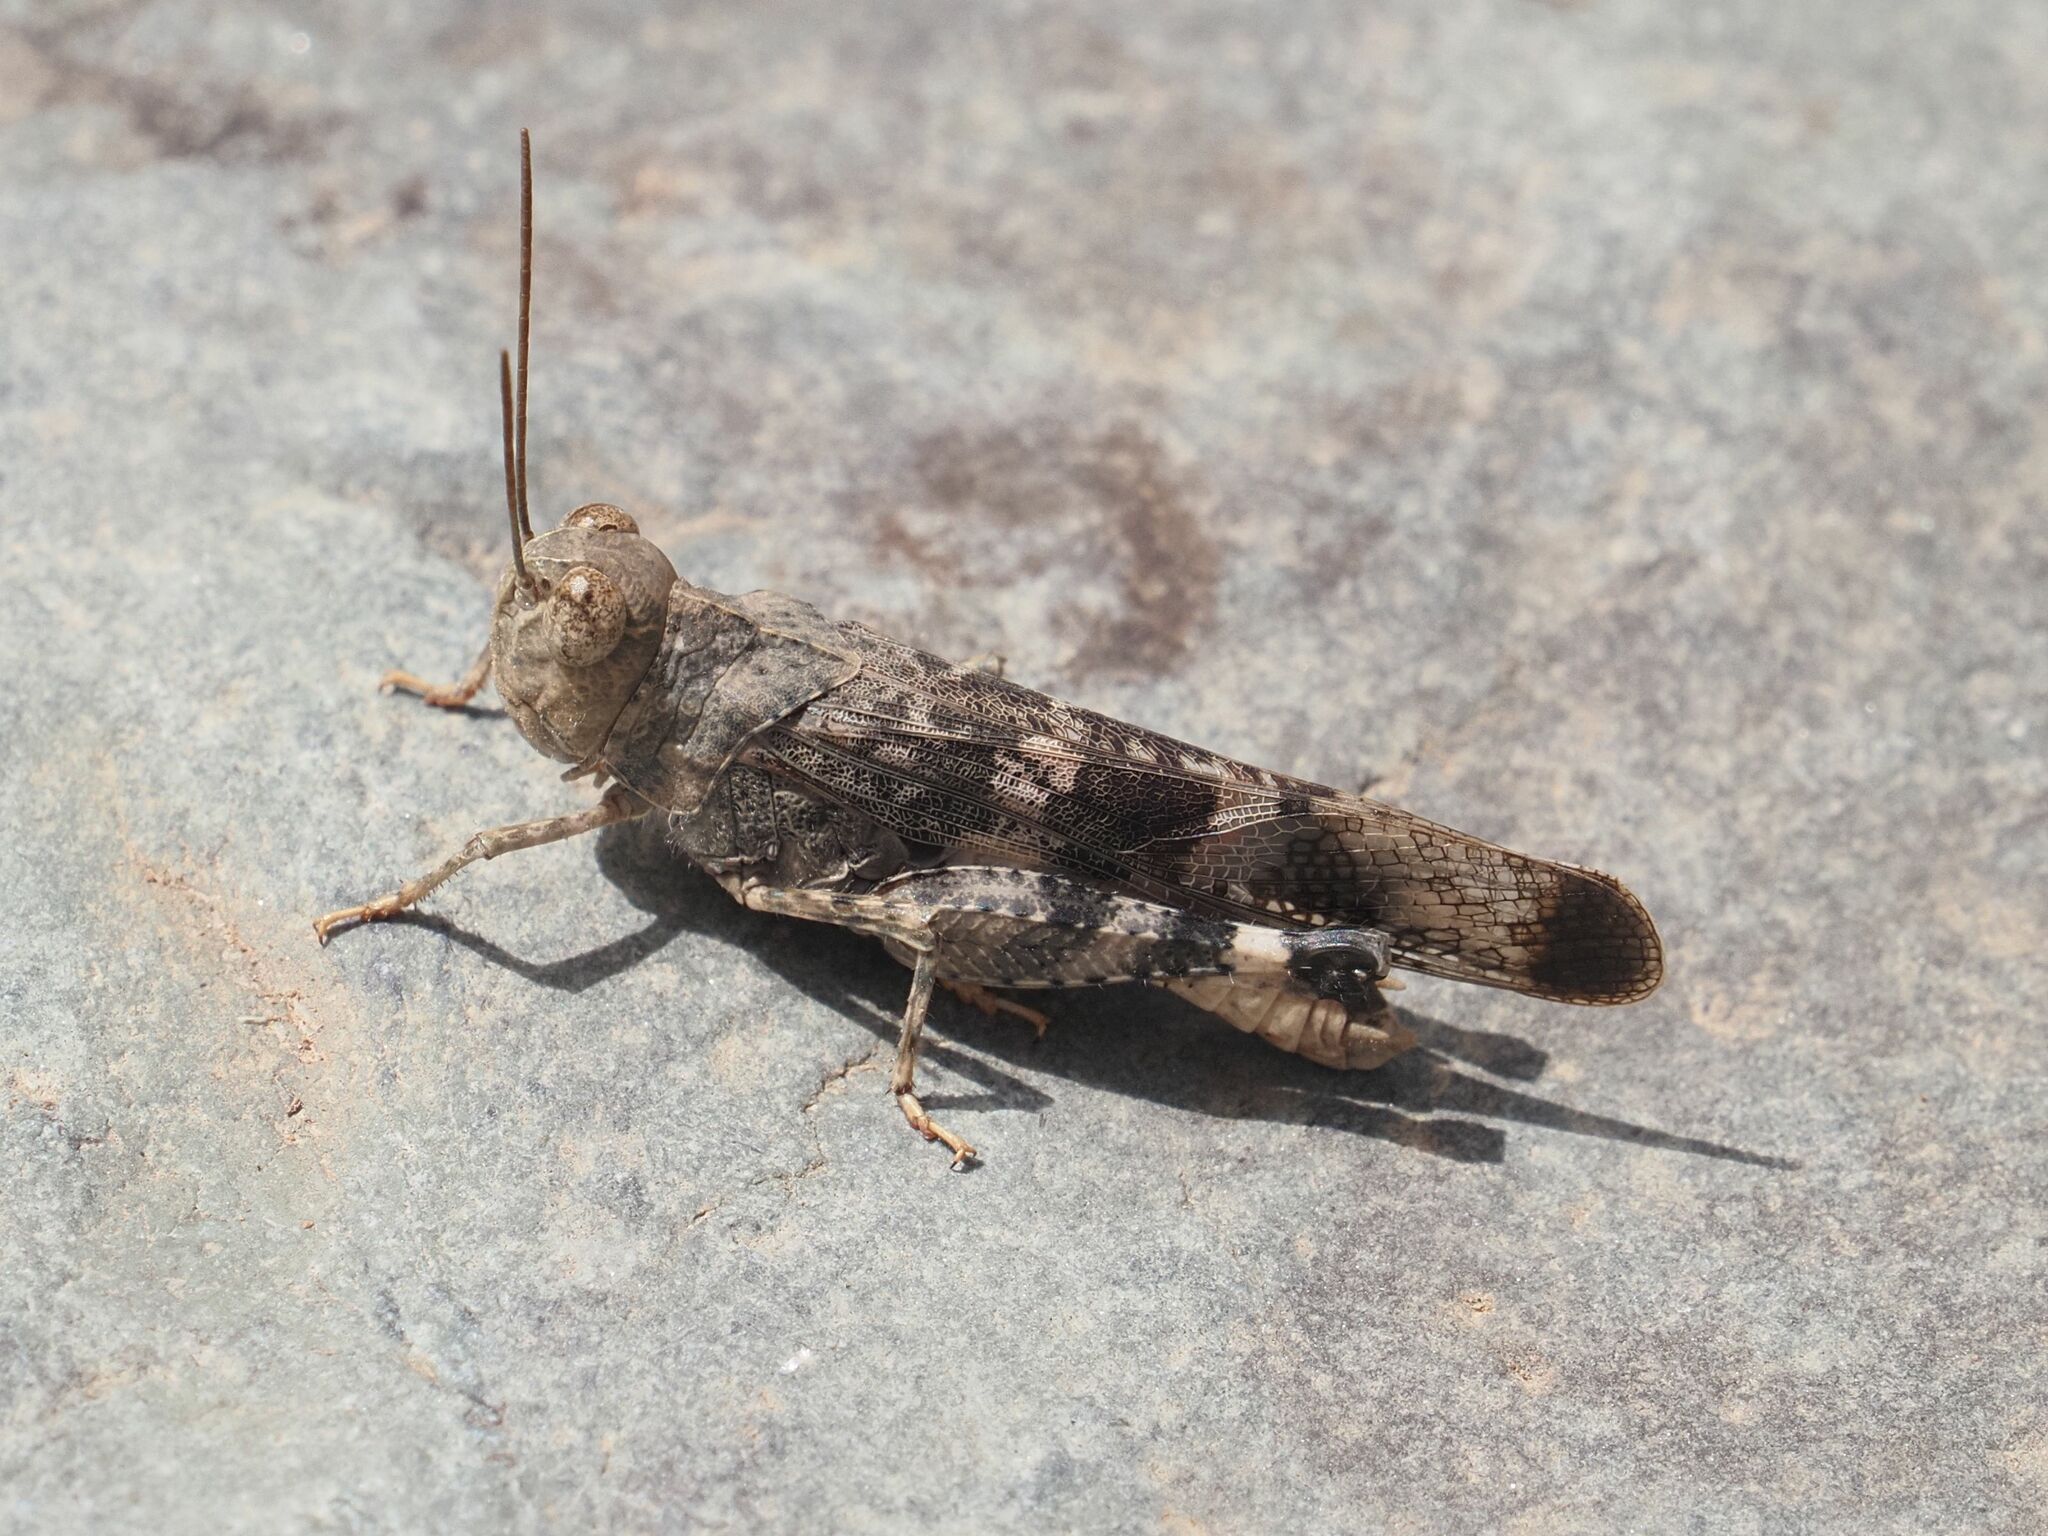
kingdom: Animalia
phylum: Arthropoda
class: Insecta
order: Orthoptera
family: Acrididae
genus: Scintharista
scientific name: Scintharista notabilis
